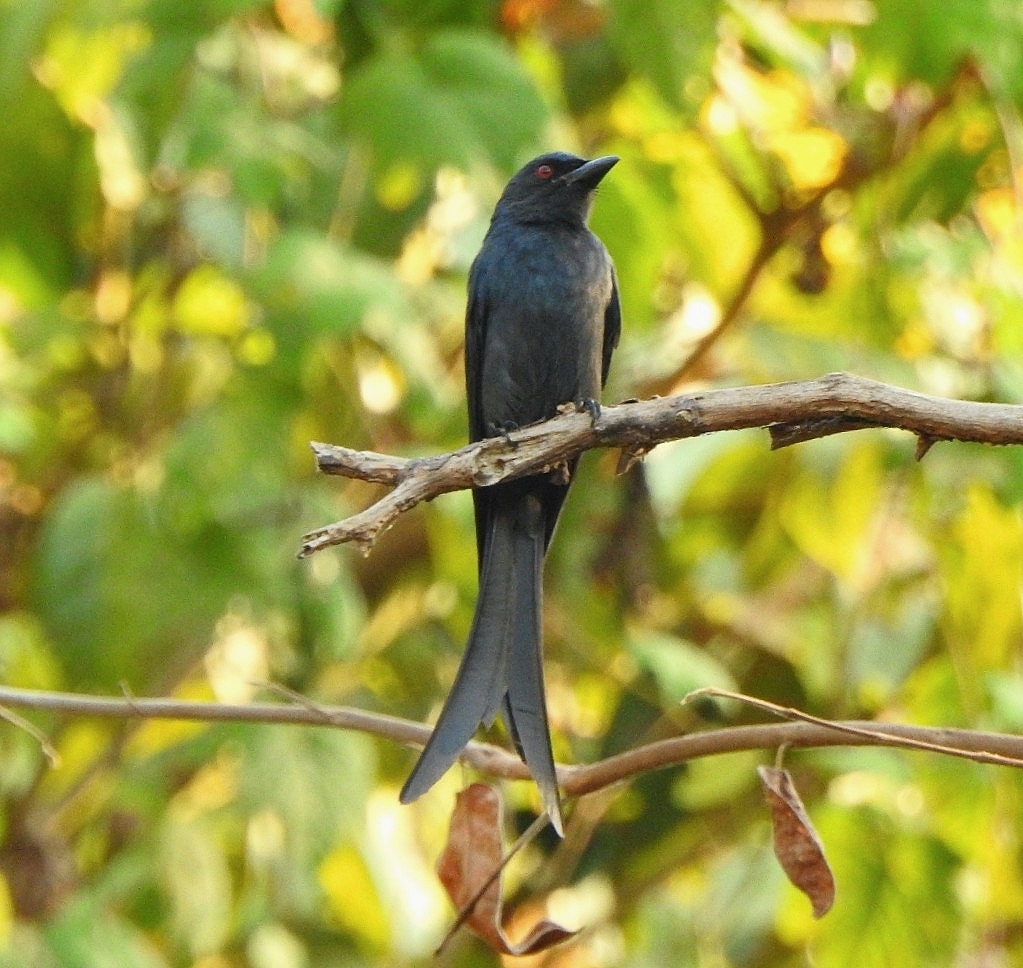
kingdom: Animalia
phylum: Chordata
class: Aves
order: Passeriformes
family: Dicruridae
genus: Dicrurus
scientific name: Dicrurus leucophaeus
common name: Ashy drongo
